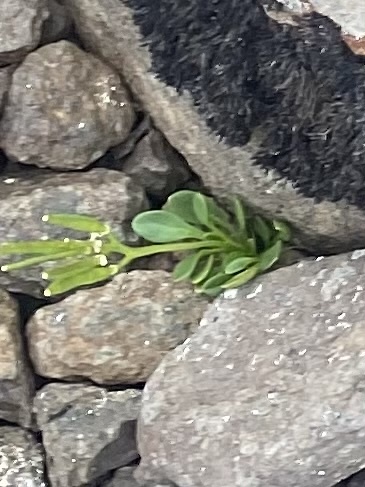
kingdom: Plantae
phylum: Tracheophyta
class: Magnoliopsida
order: Brassicales
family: Brassicaceae
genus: Cardamine
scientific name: Cardamine bellidifolia
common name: Alpine bittercress
